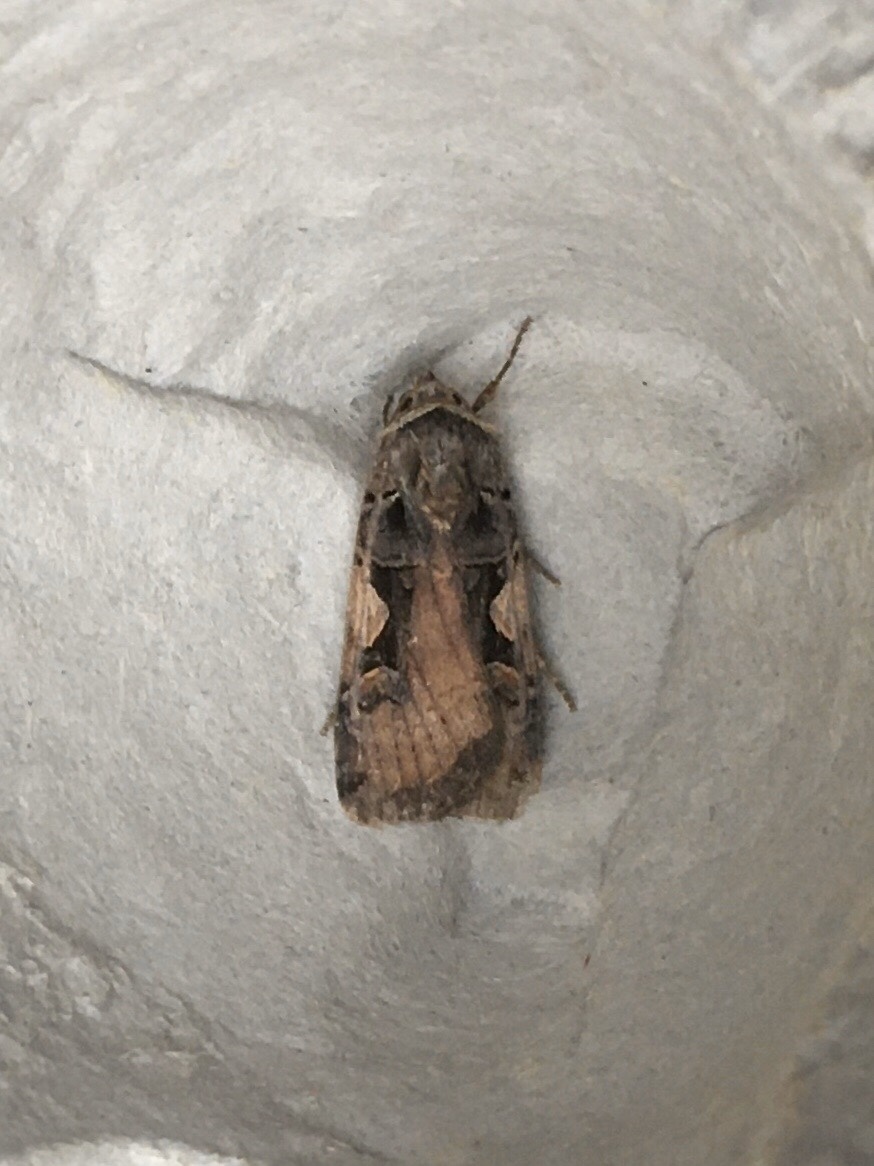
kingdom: Animalia
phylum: Arthropoda
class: Insecta
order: Lepidoptera
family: Noctuidae
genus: Xestia
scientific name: Xestia
